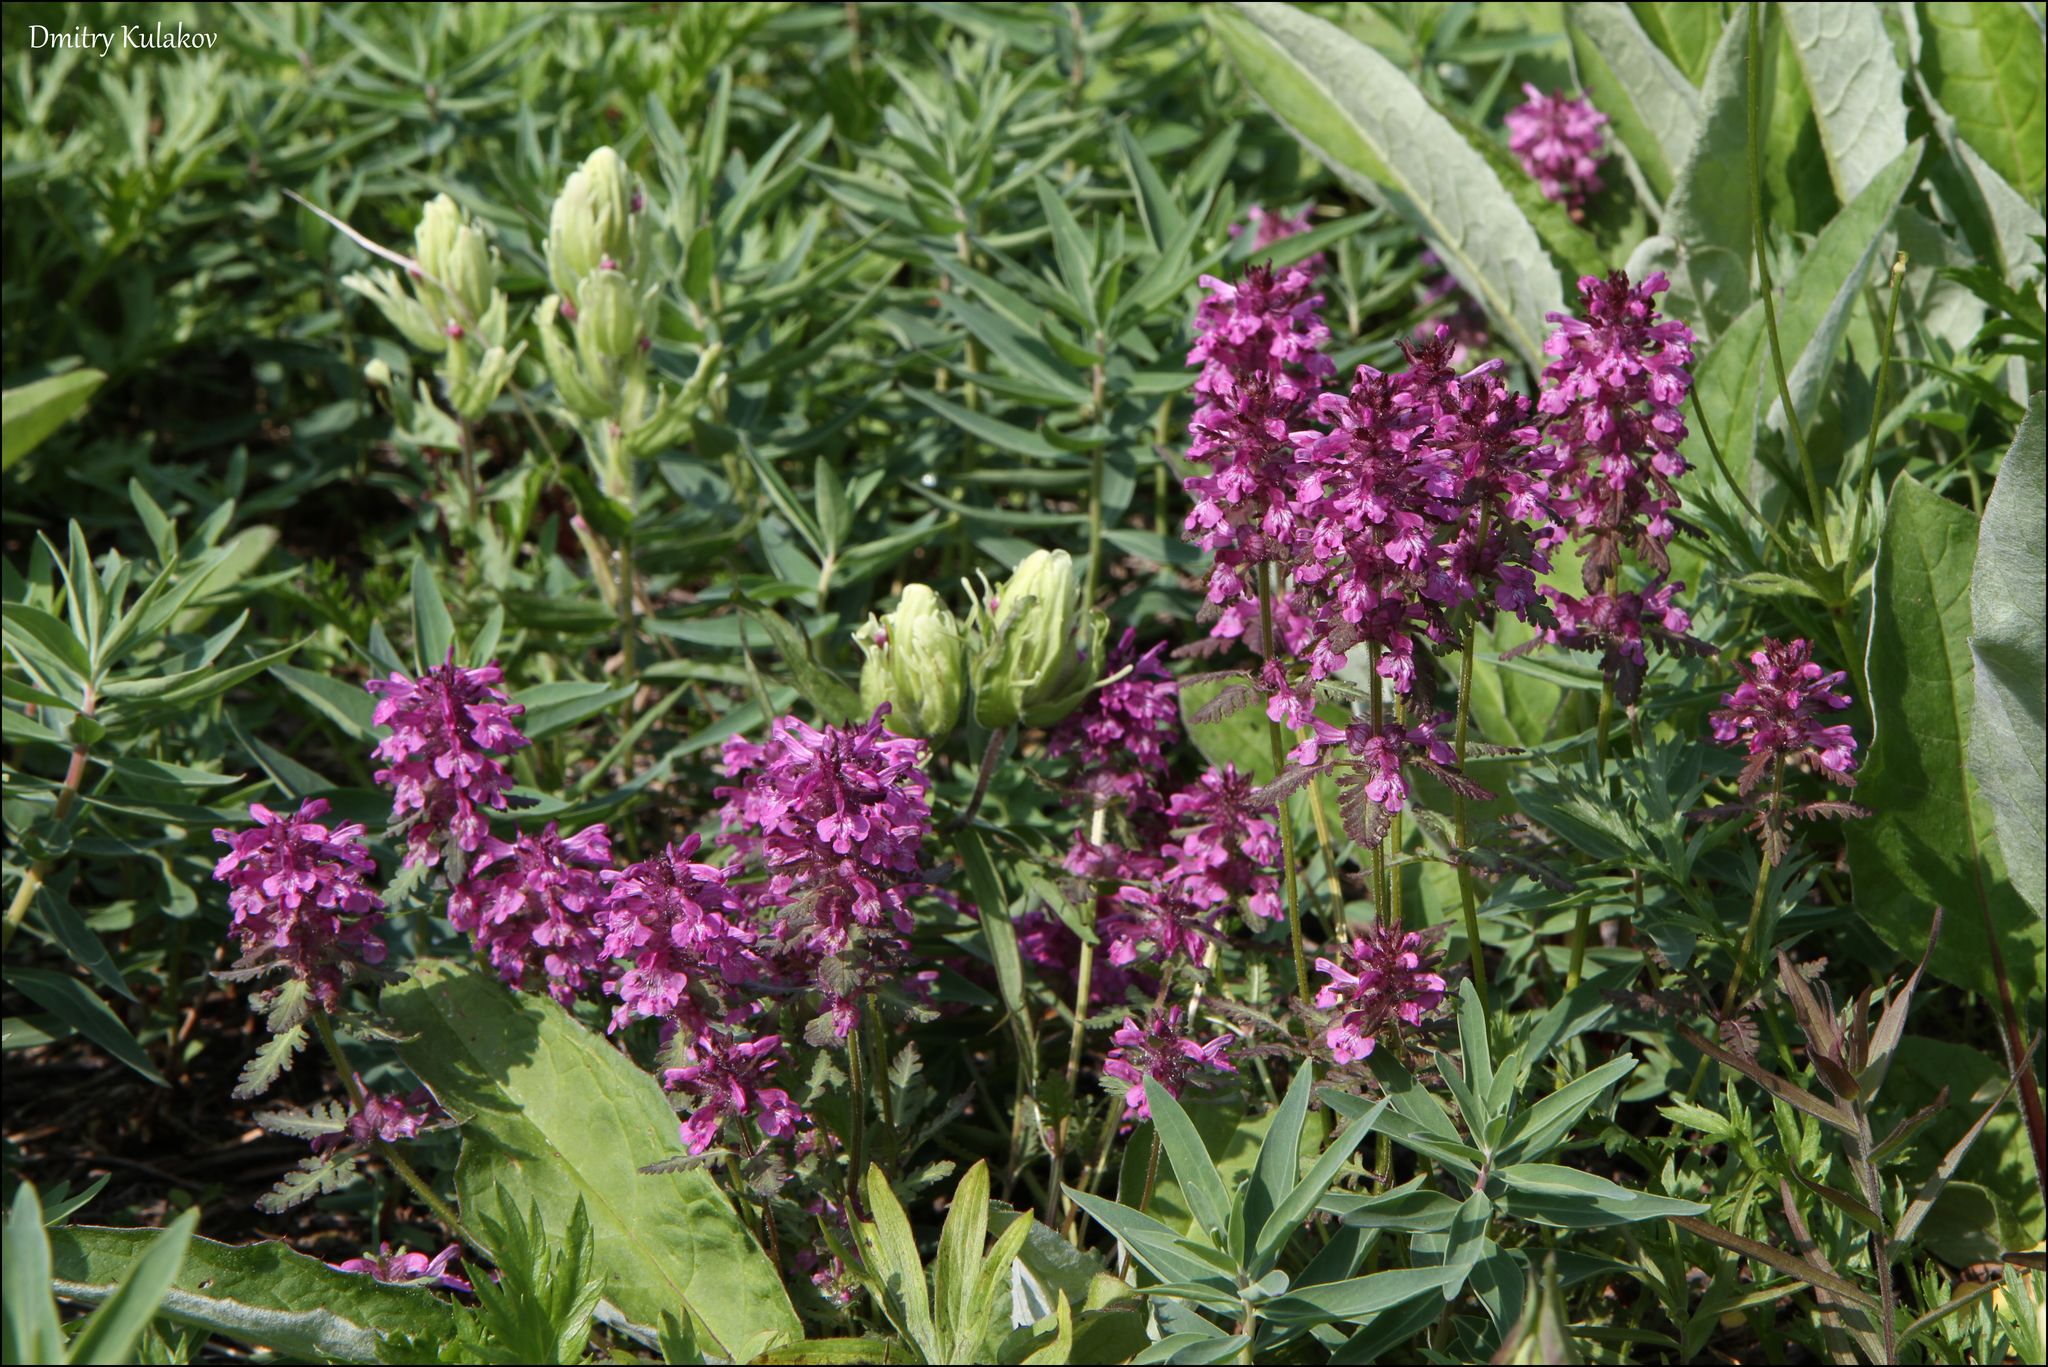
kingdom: Plantae
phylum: Tracheophyta
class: Magnoliopsida
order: Lamiales
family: Orobanchaceae
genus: Pedicularis
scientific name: Pedicularis verticillata
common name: Whorled lousewort
